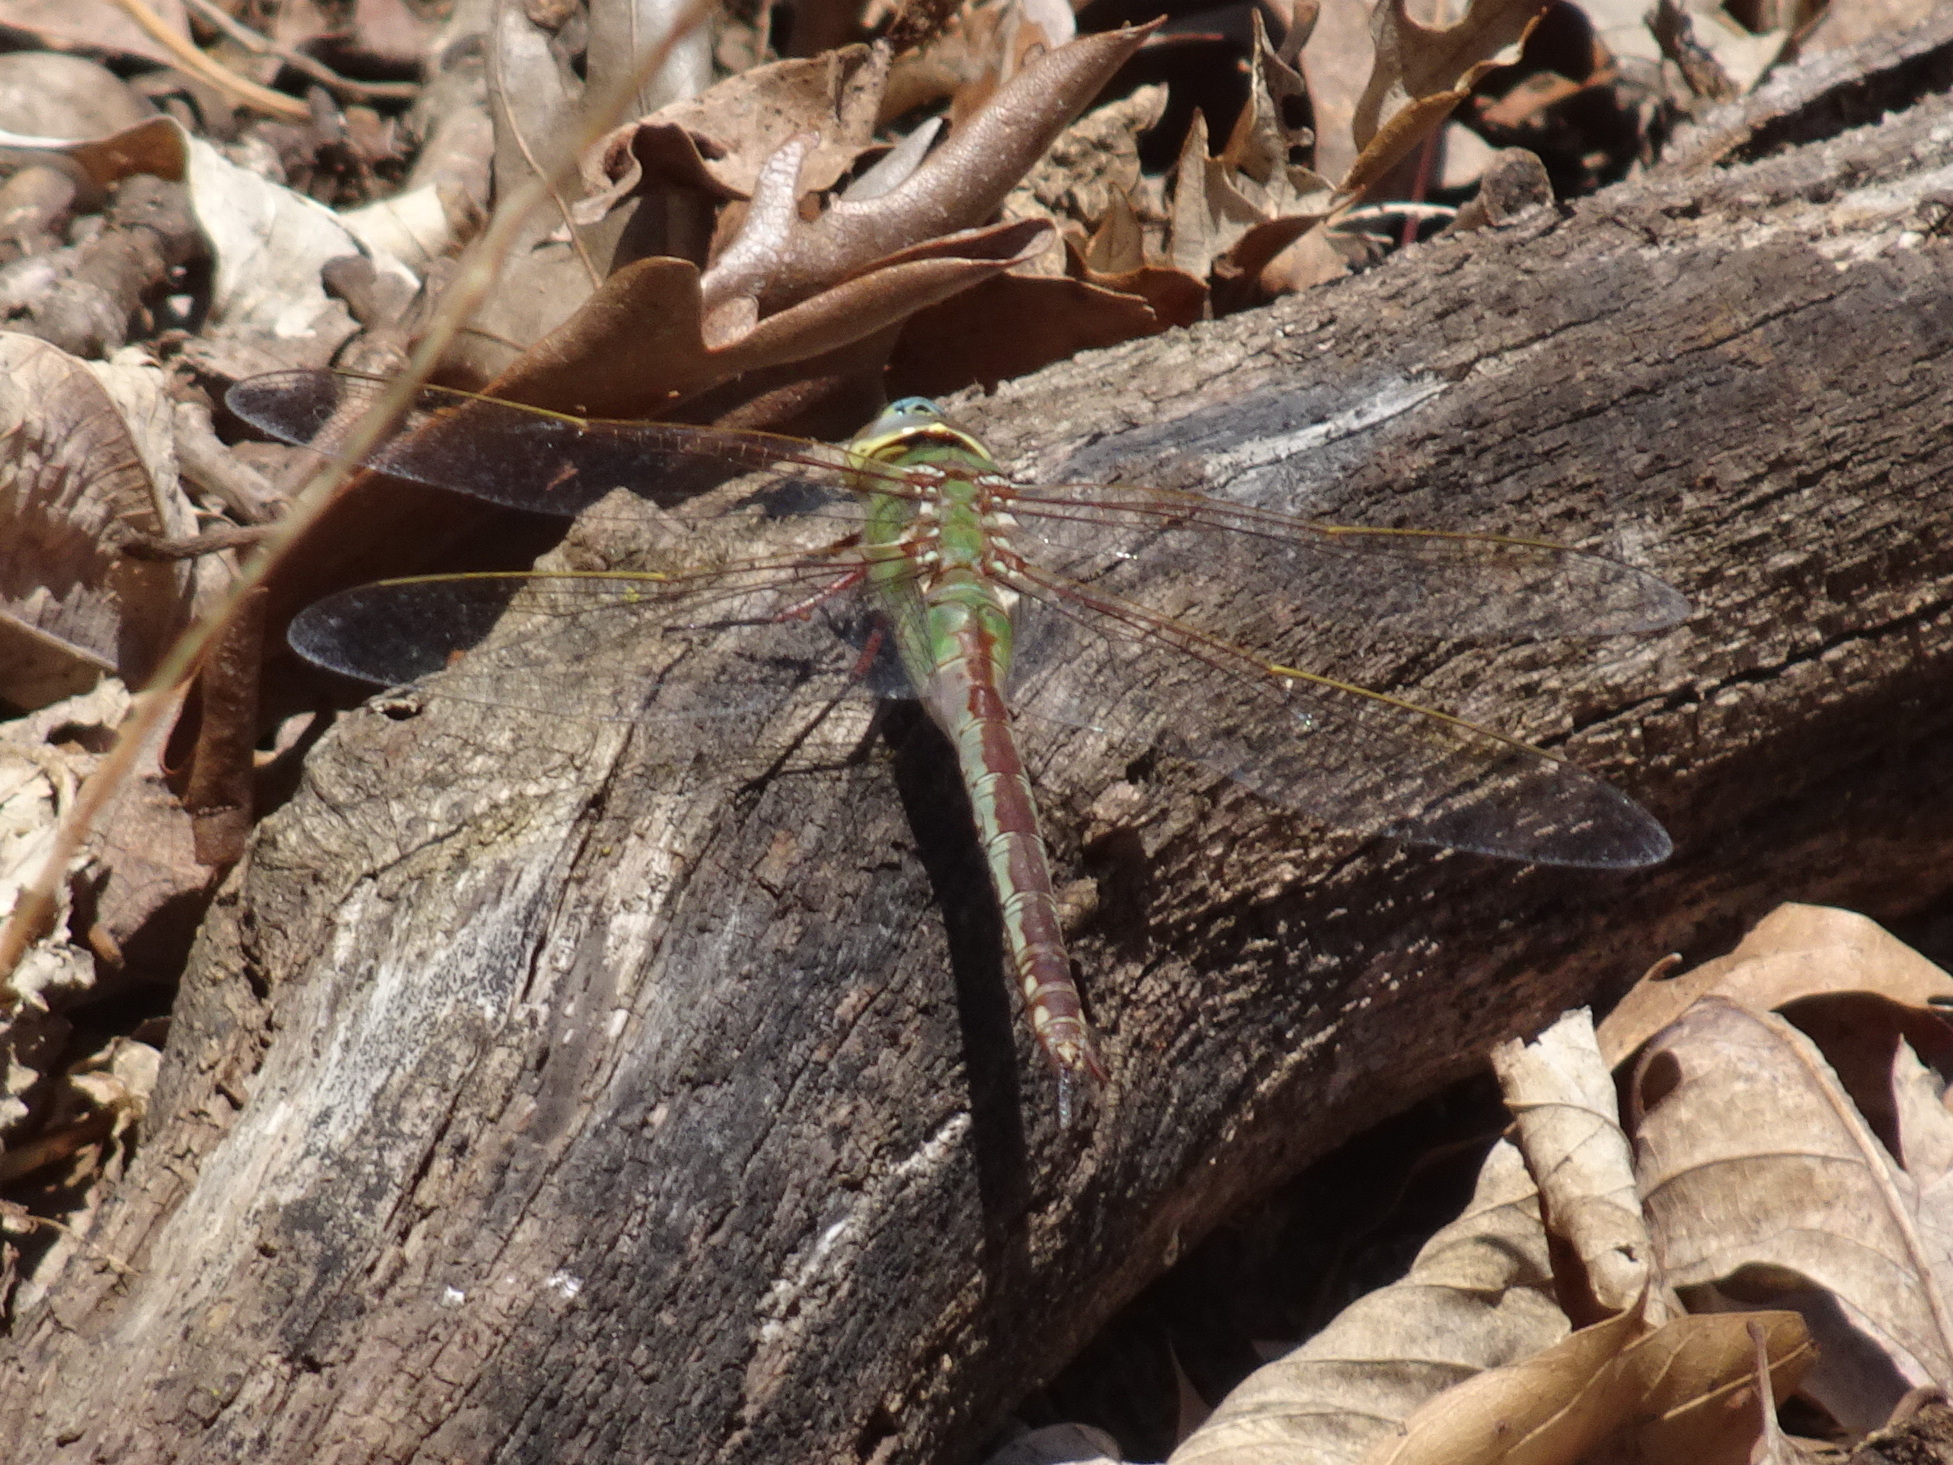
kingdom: Animalia
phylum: Arthropoda
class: Insecta
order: Odonata
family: Aeshnidae
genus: Anax
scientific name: Anax junius
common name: Common green darner
